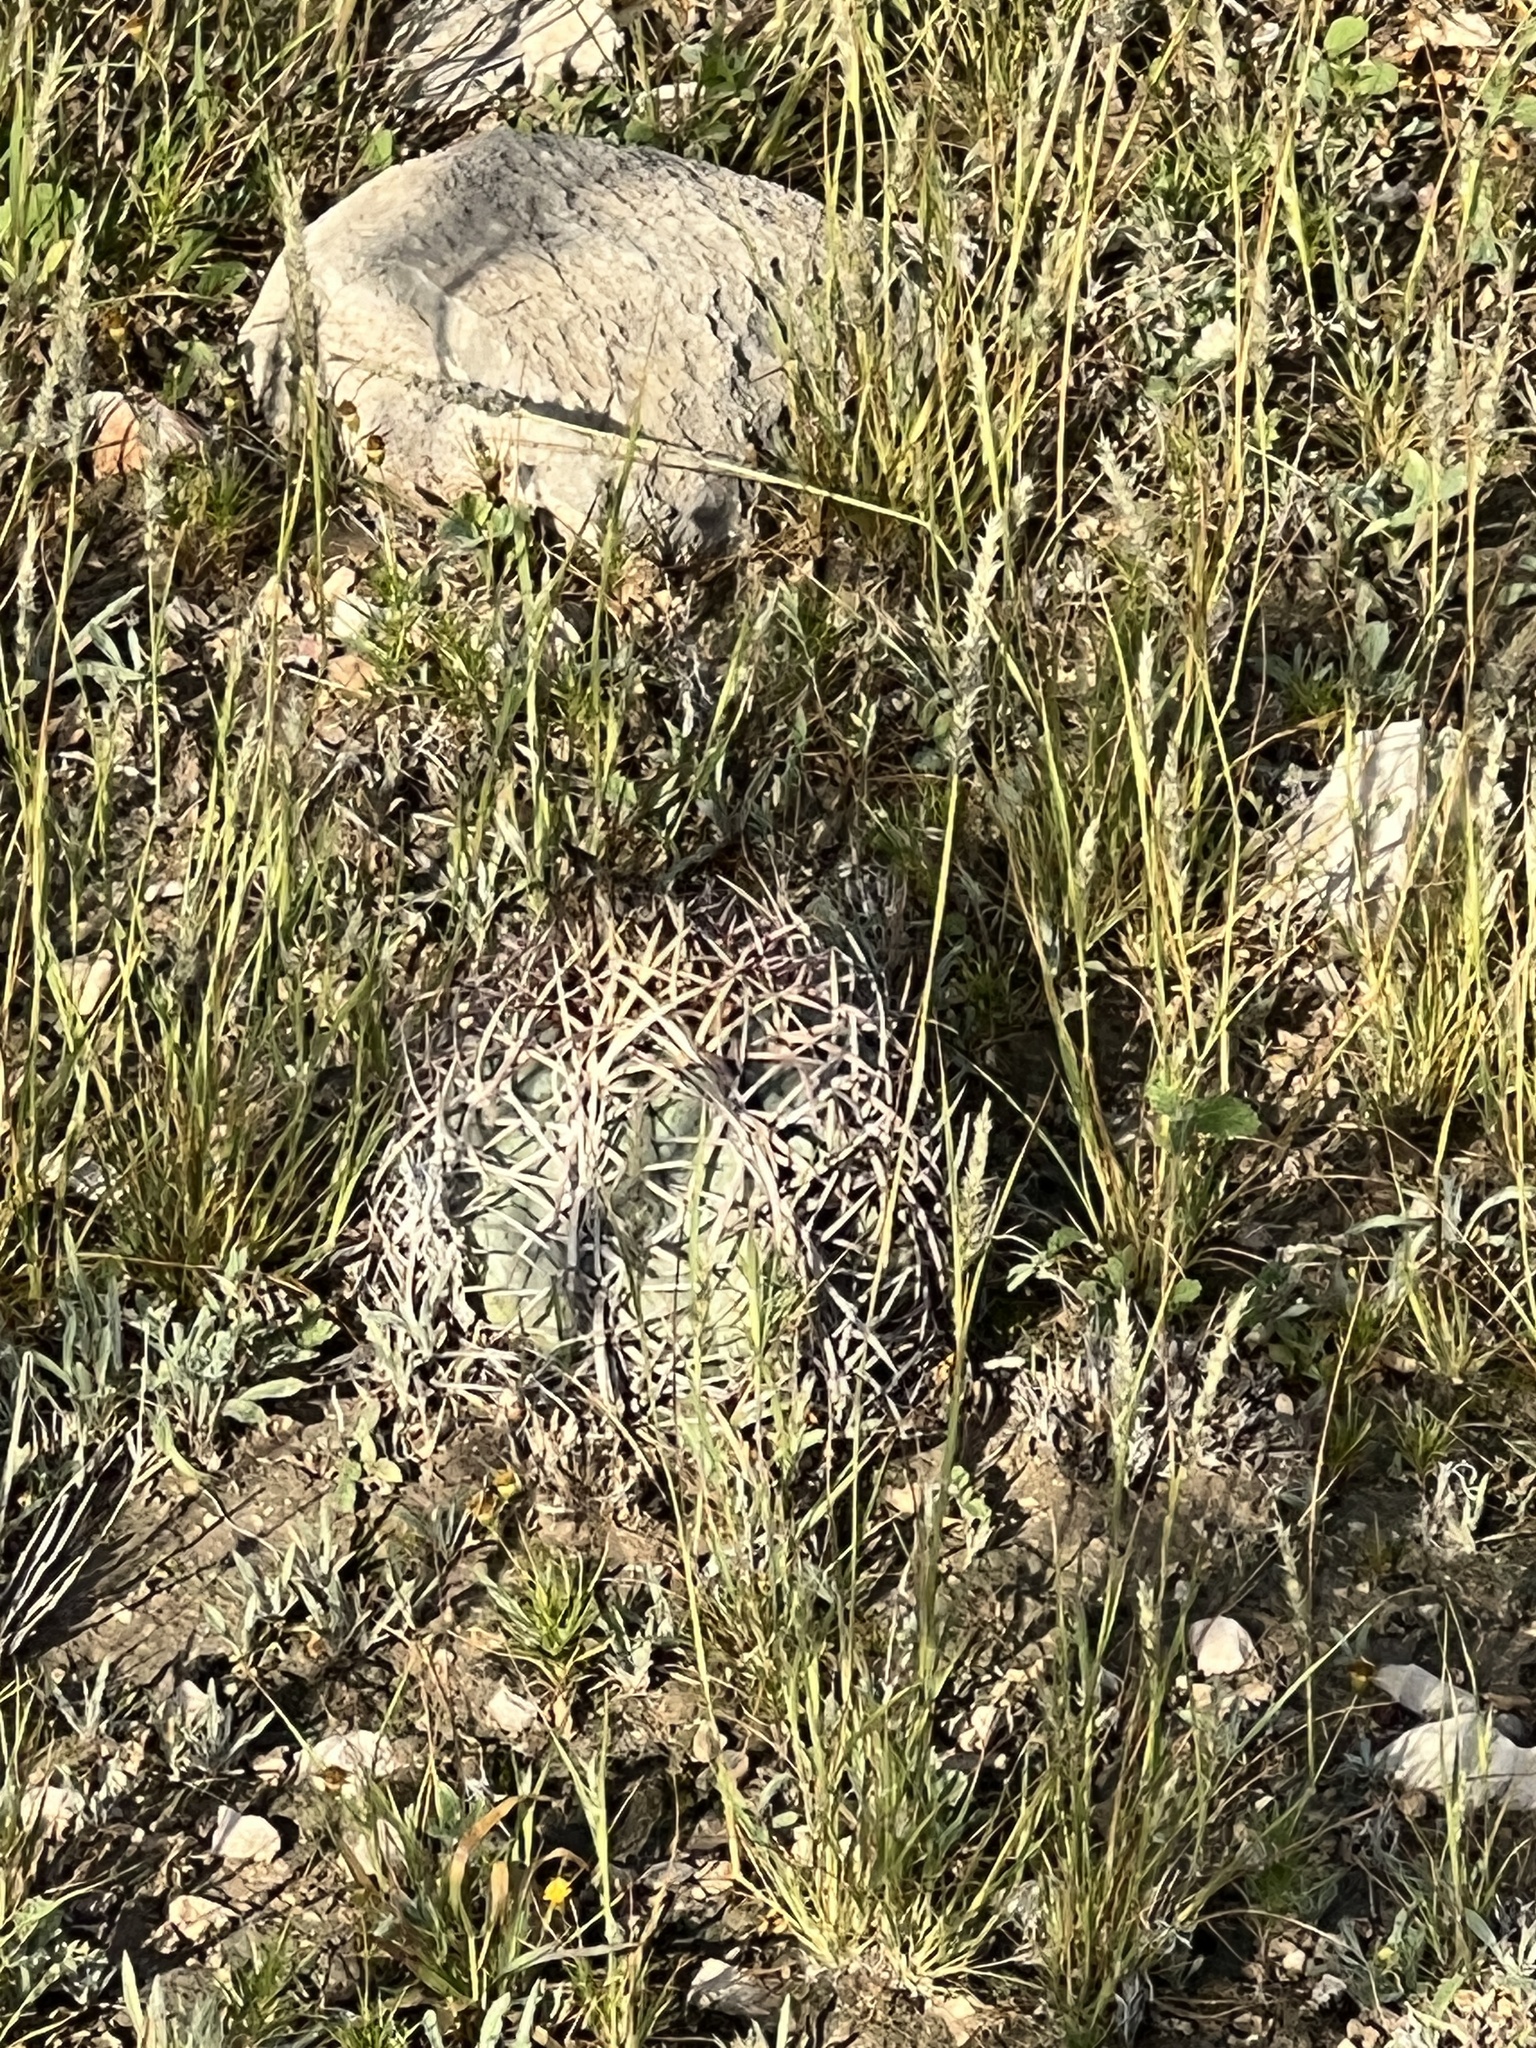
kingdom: Plantae
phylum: Tracheophyta
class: Magnoliopsida
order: Caryophyllales
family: Cactaceae
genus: Echinocactus
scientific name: Echinocactus horizonthalonius
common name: Devilshead
